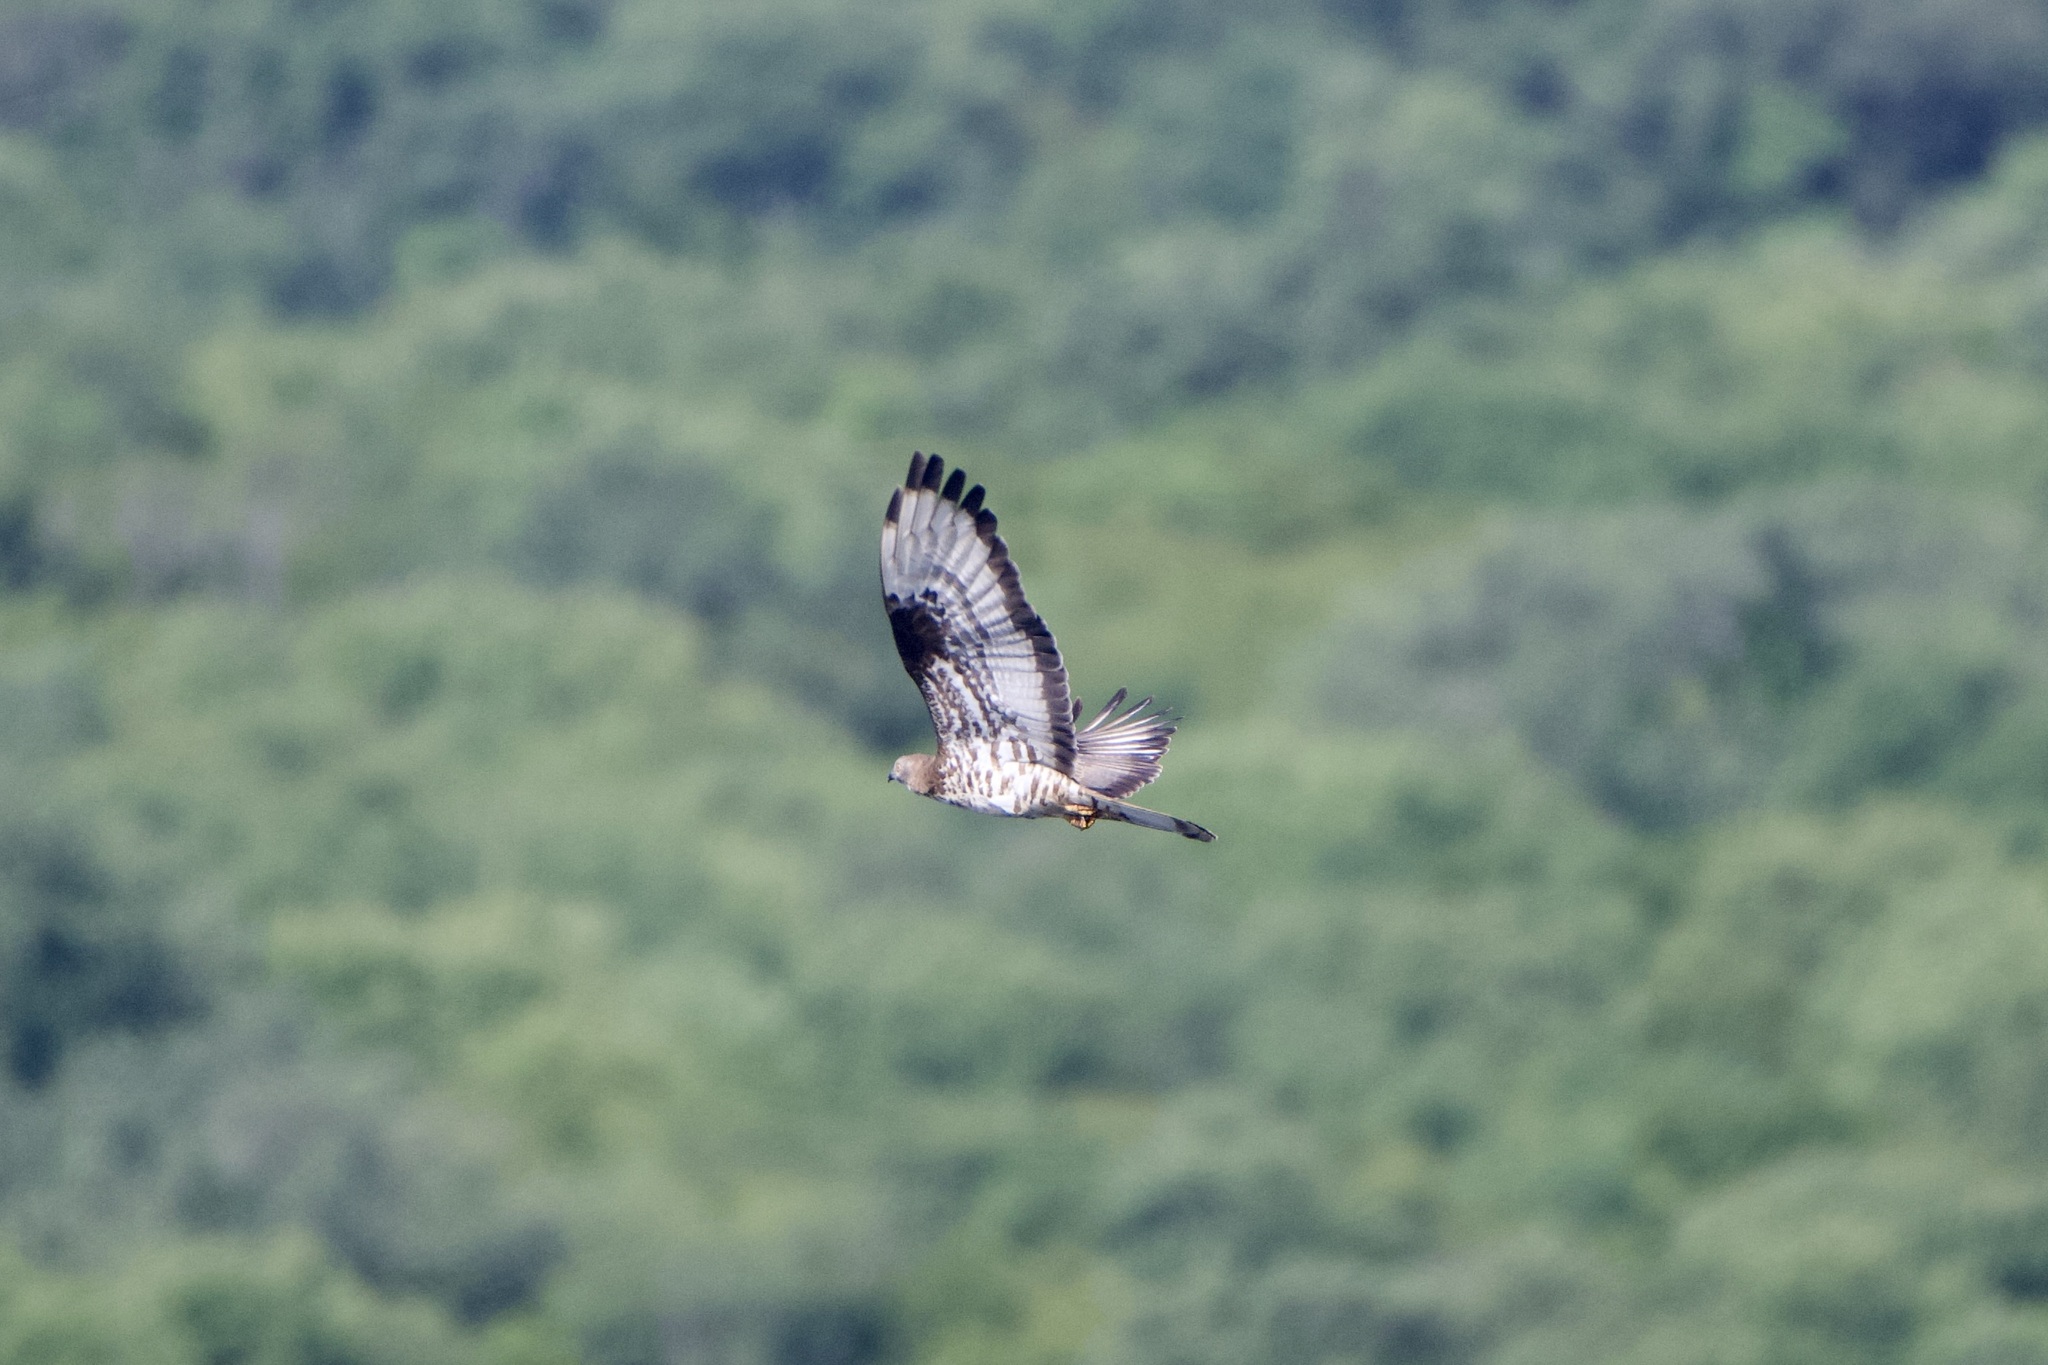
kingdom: Animalia
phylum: Chordata
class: Aves
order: Accipitriformes
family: Accipitridae
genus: Pernis
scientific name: Pernis apivorus
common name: European honey buzzard
